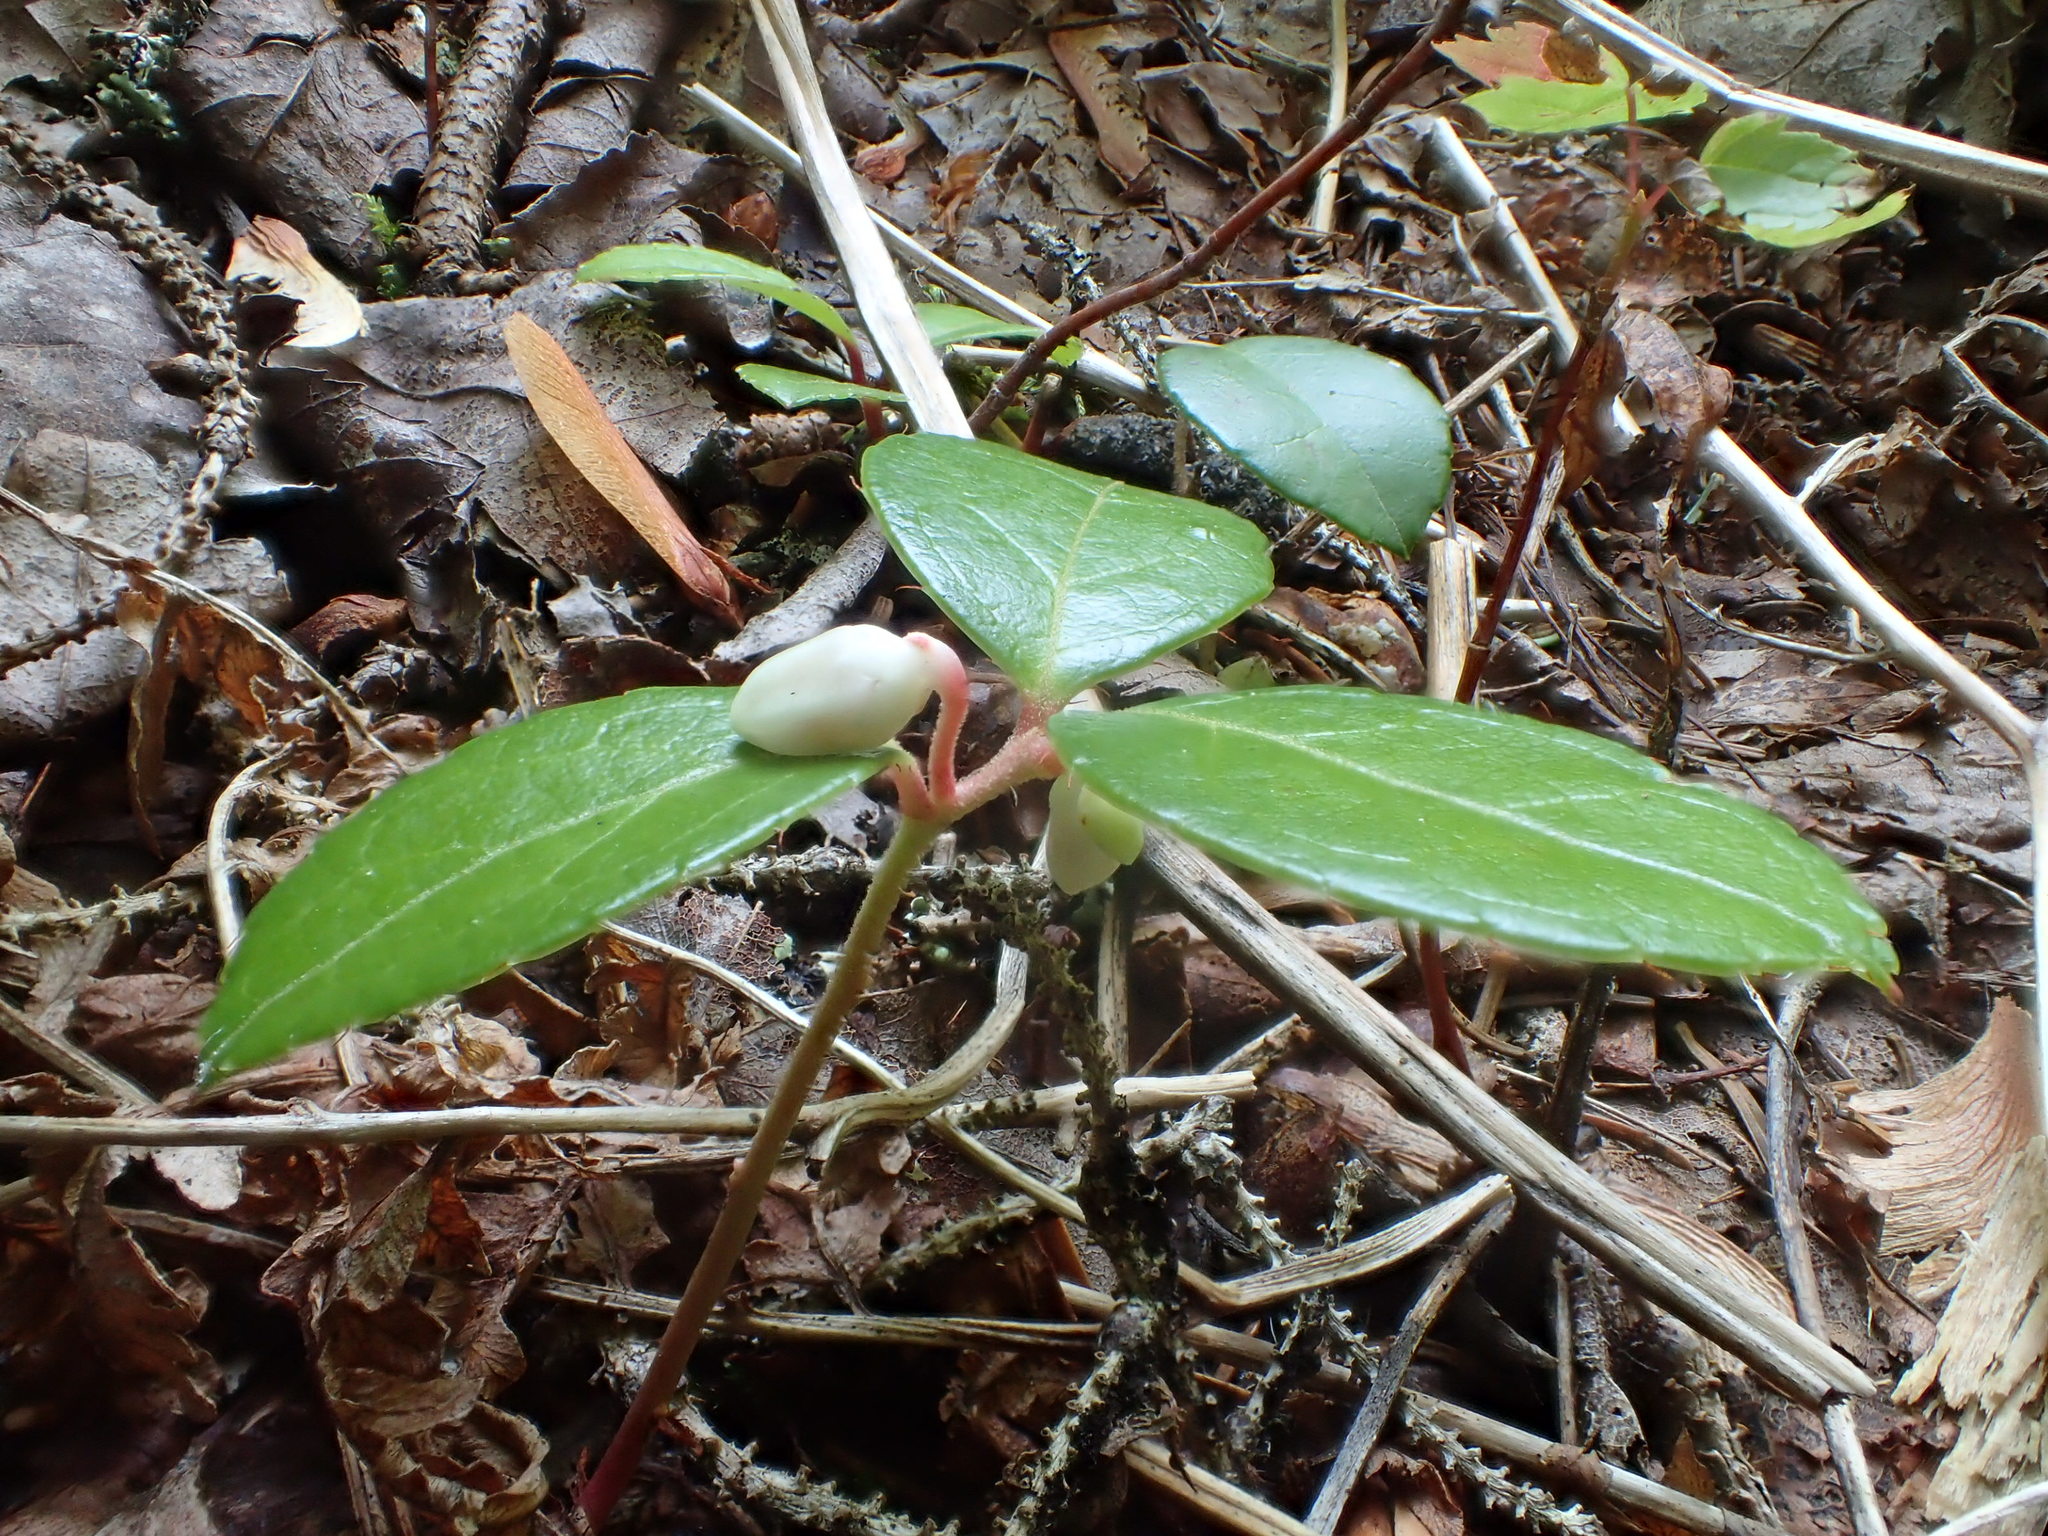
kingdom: Plantae
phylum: Tracheophyta
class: Magnoliopsida
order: Ericales
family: Ericaceae
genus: Gaultheria
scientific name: Gaultheria procumbens
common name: Checkerberry
